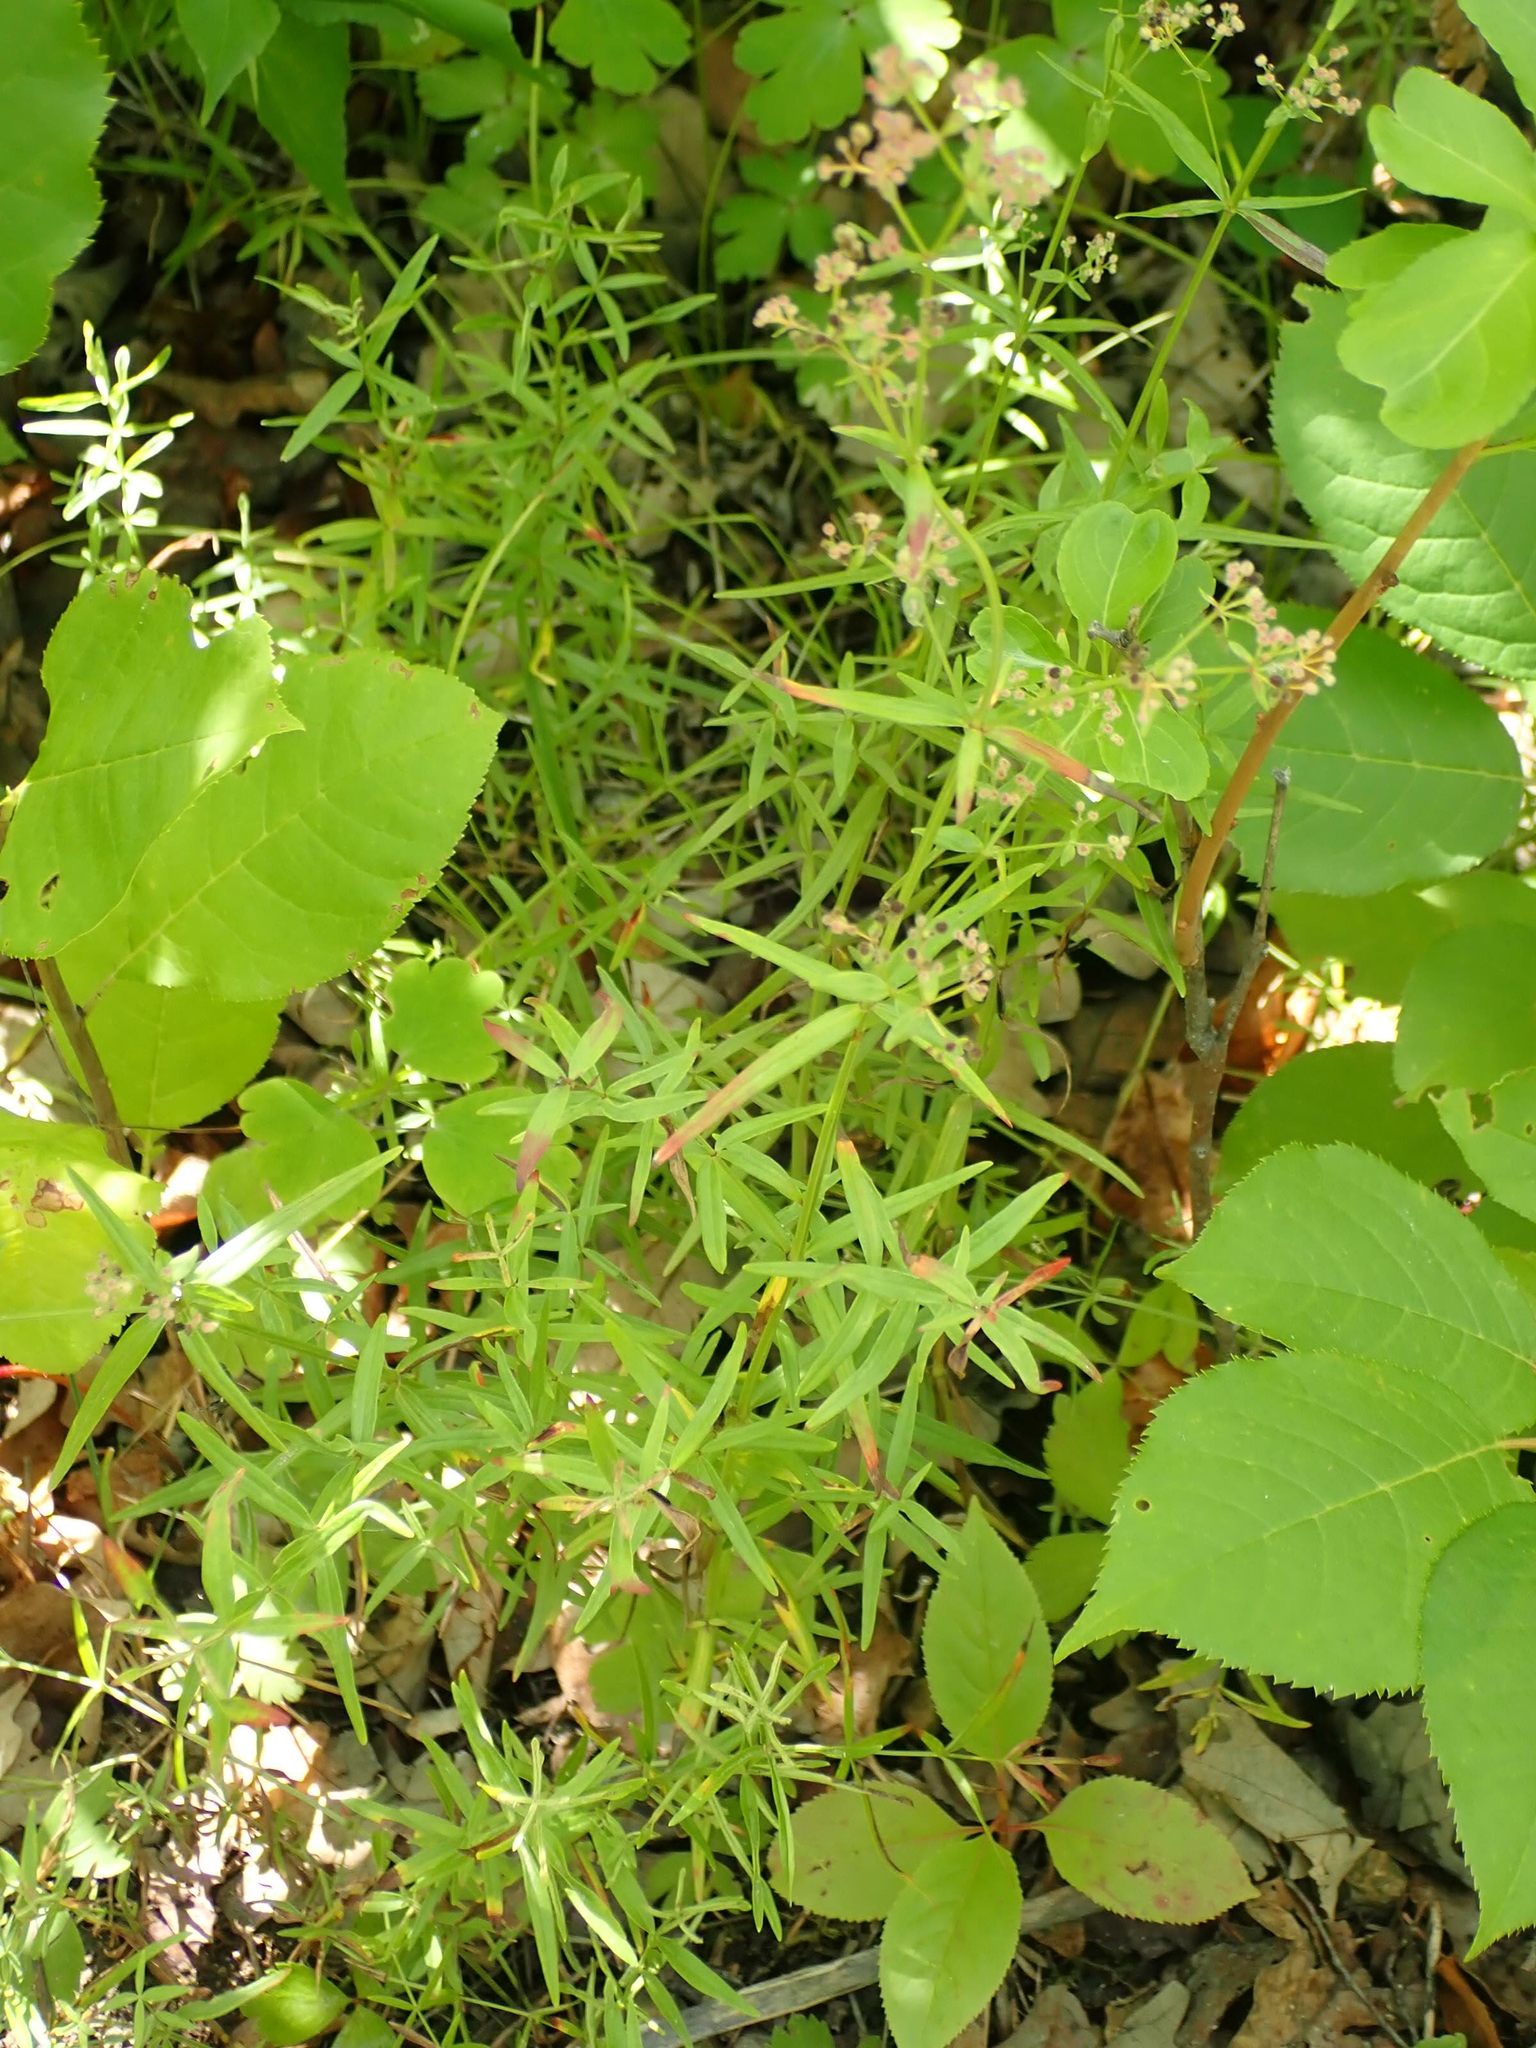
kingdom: Plantae
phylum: Tracheophyta
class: Magnoliopsida
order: Gentianales
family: Rubiaceae
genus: Galium
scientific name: Galium boreale
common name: Northern bedstraw
